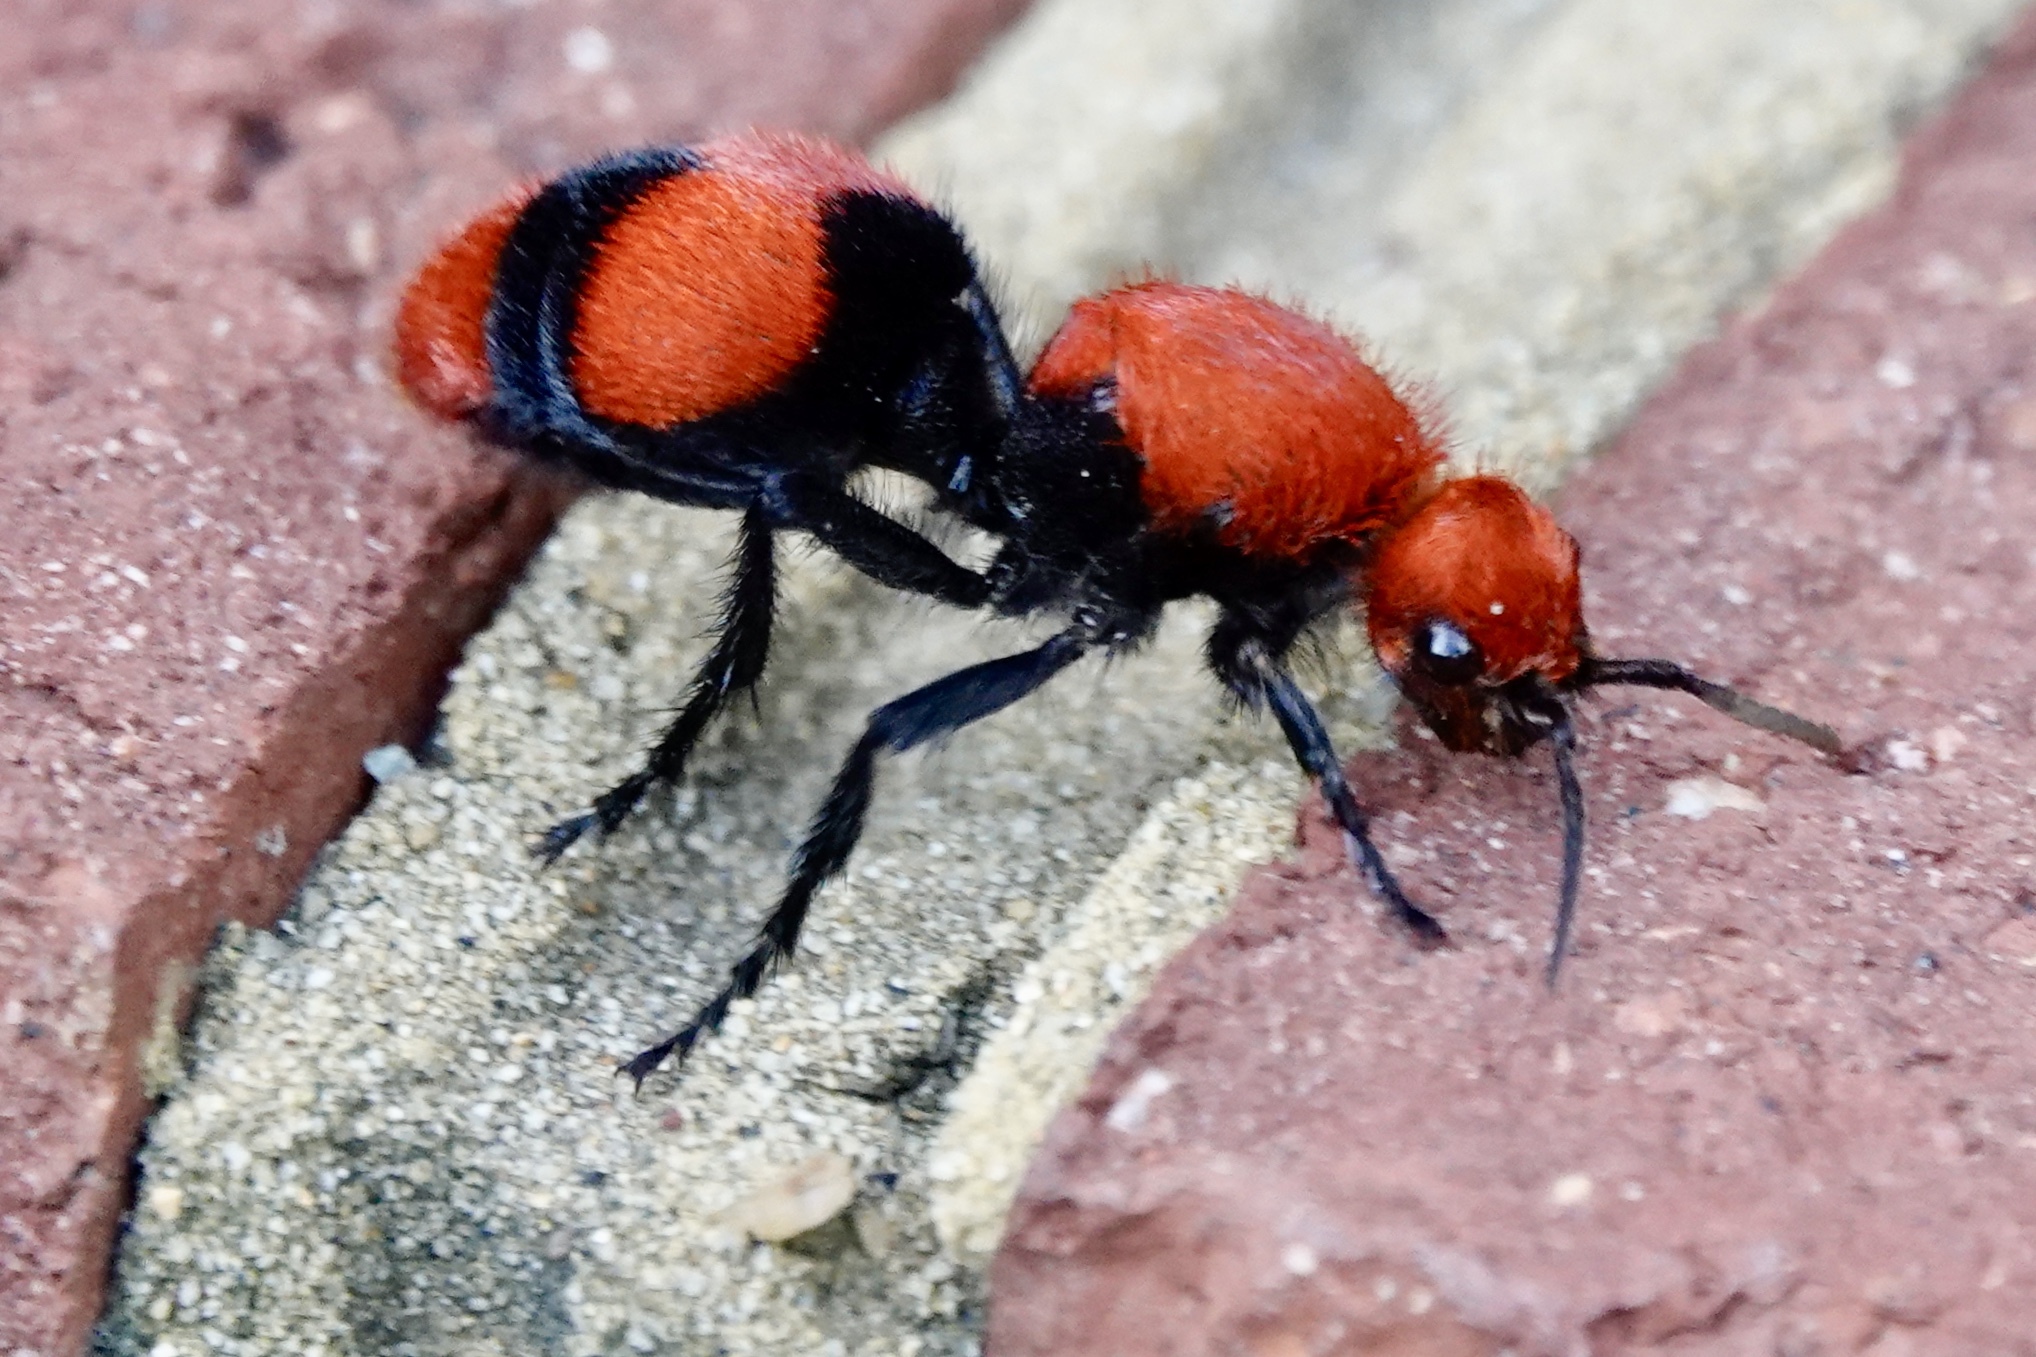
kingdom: Animalia
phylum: Arthropoda
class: Insecta
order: Hymenoptera
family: Mutillidae
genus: Dasymutilla
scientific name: Dasymutilla occidentalis
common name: Common eastern velvet ant
